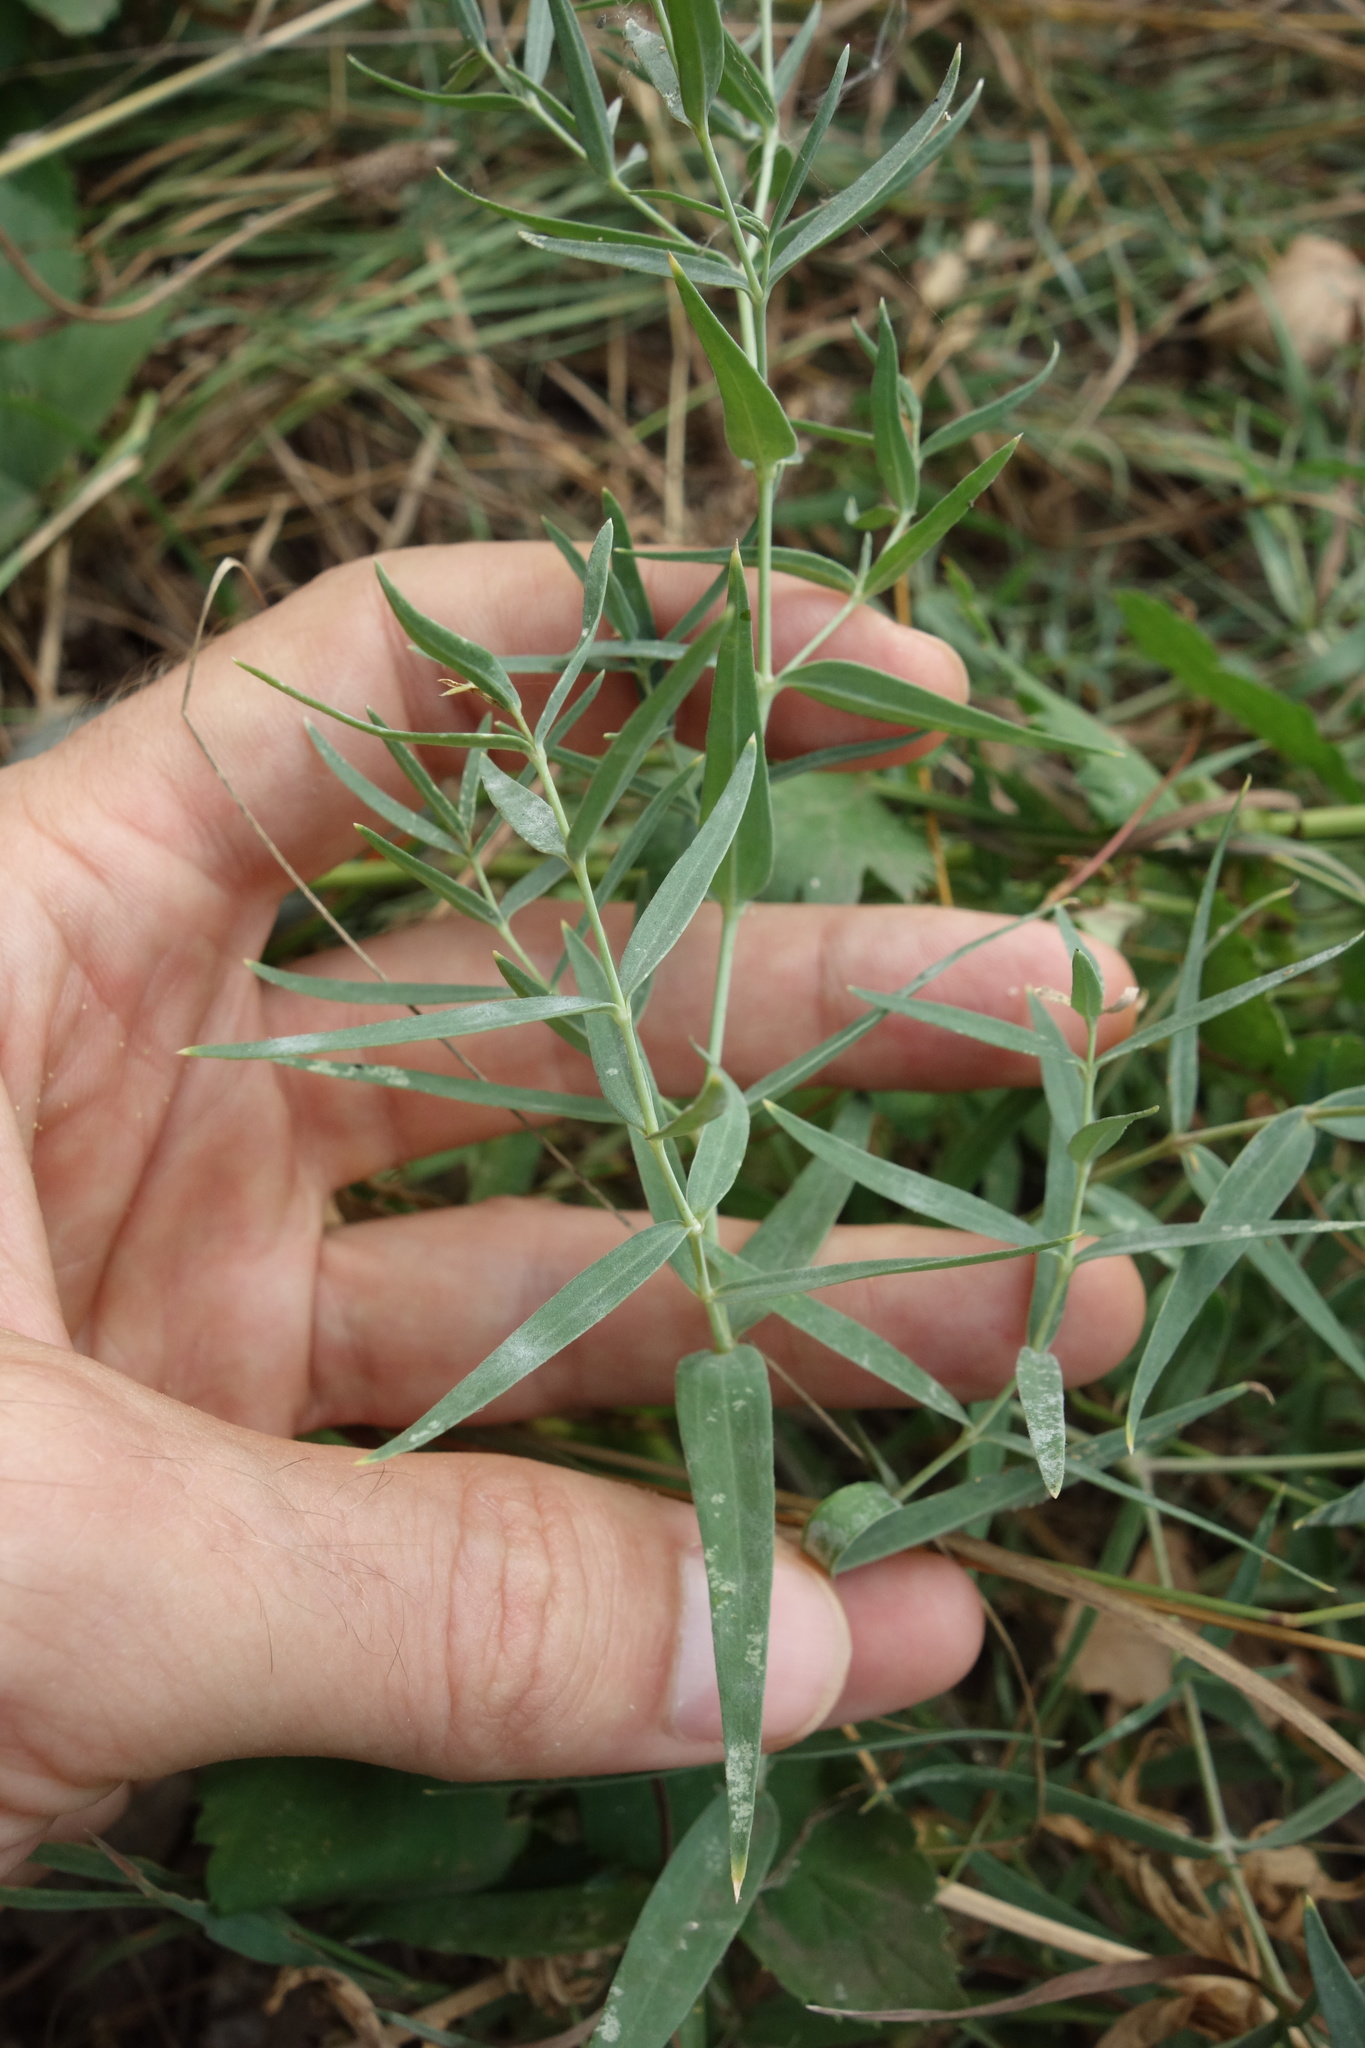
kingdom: Plantae
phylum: Tracheophyta
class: Magnoliopsida
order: Caryophyllales
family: Caryophyllaceae
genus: Gypsophila
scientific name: Gypsophila paniculata
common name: Baby's-breath
